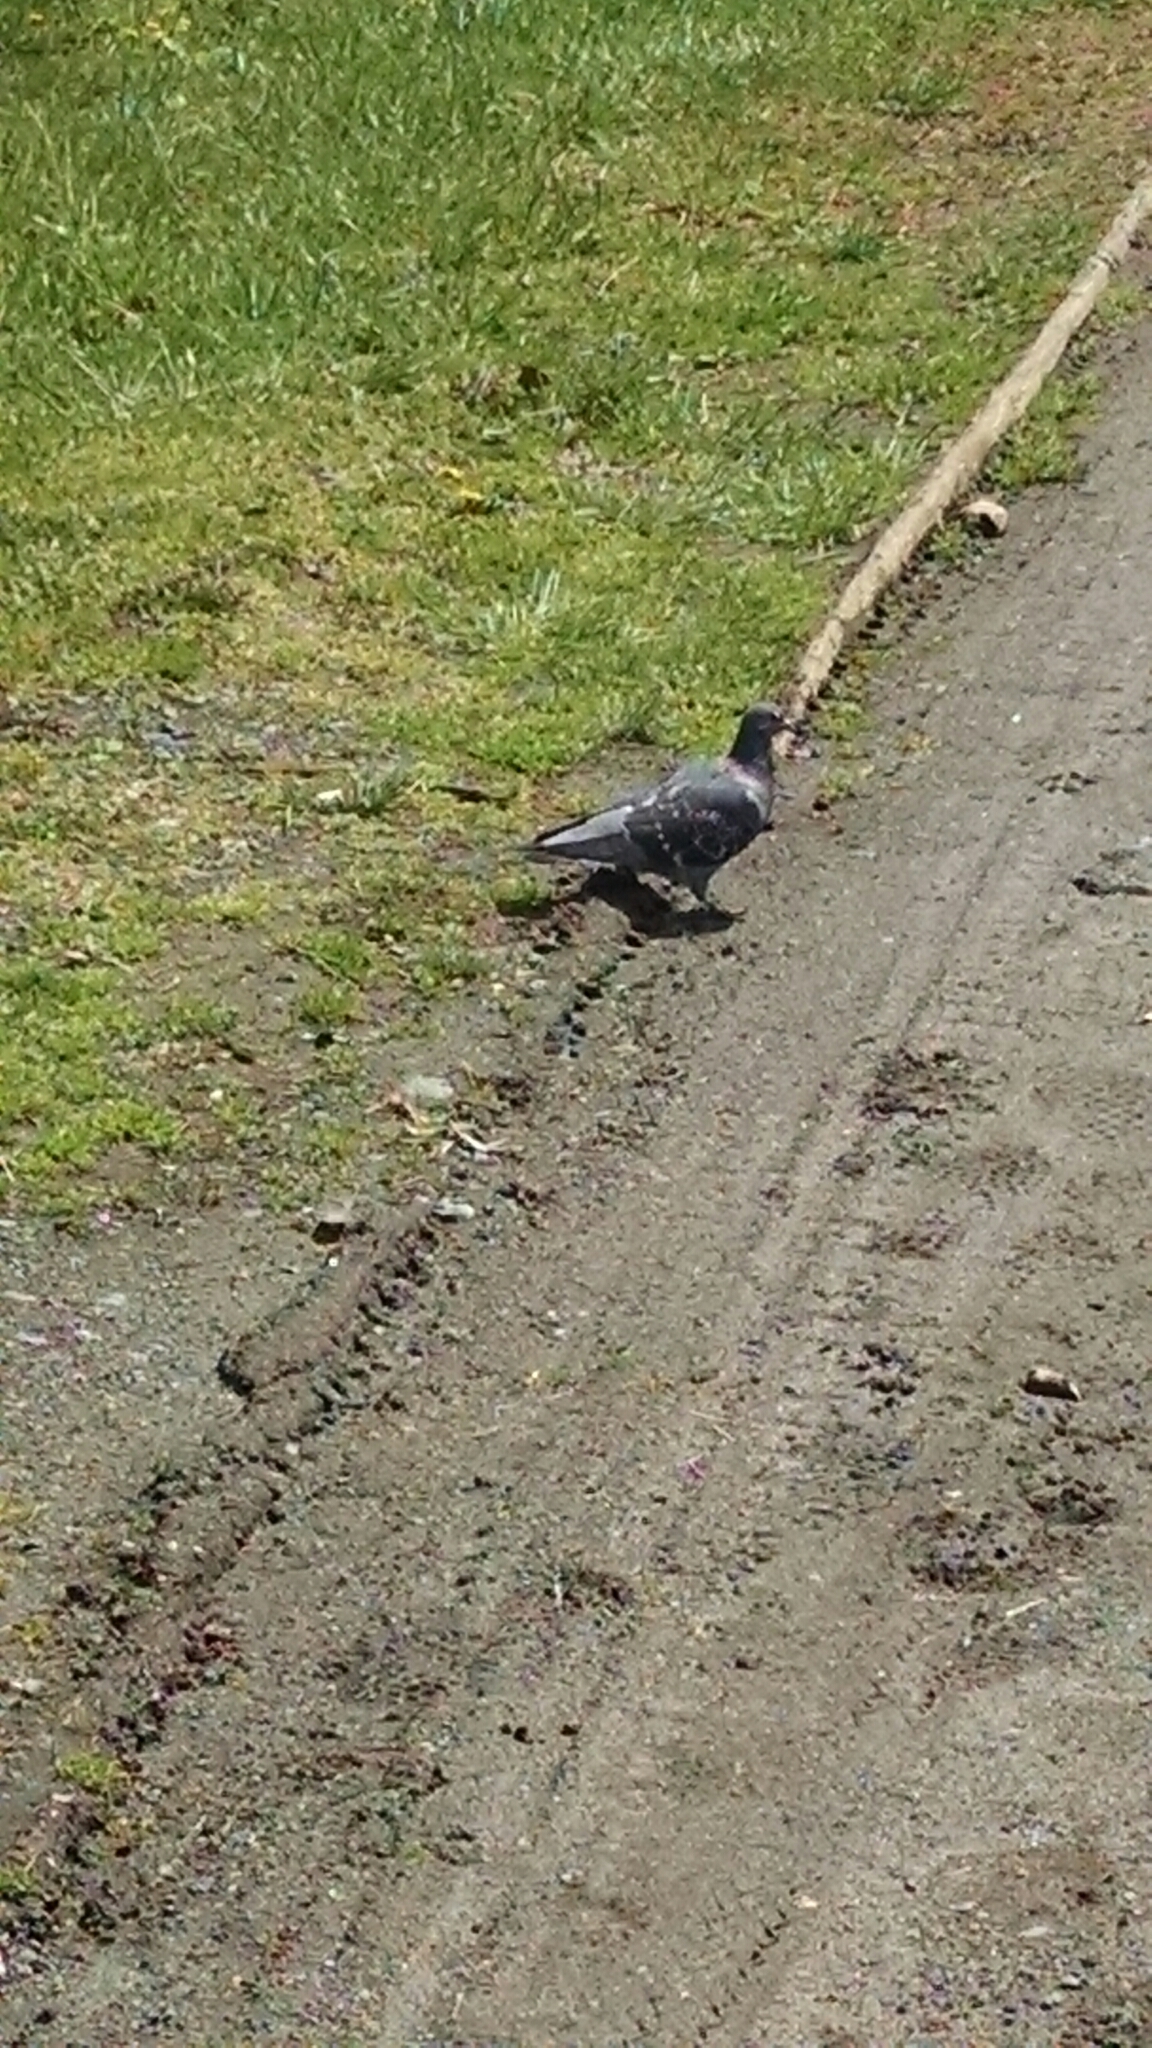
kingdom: Animalia
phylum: Chordata
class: Aves
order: Columbiformes
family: Columbidae
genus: Columba
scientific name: Columba livia
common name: Rock pigeon
